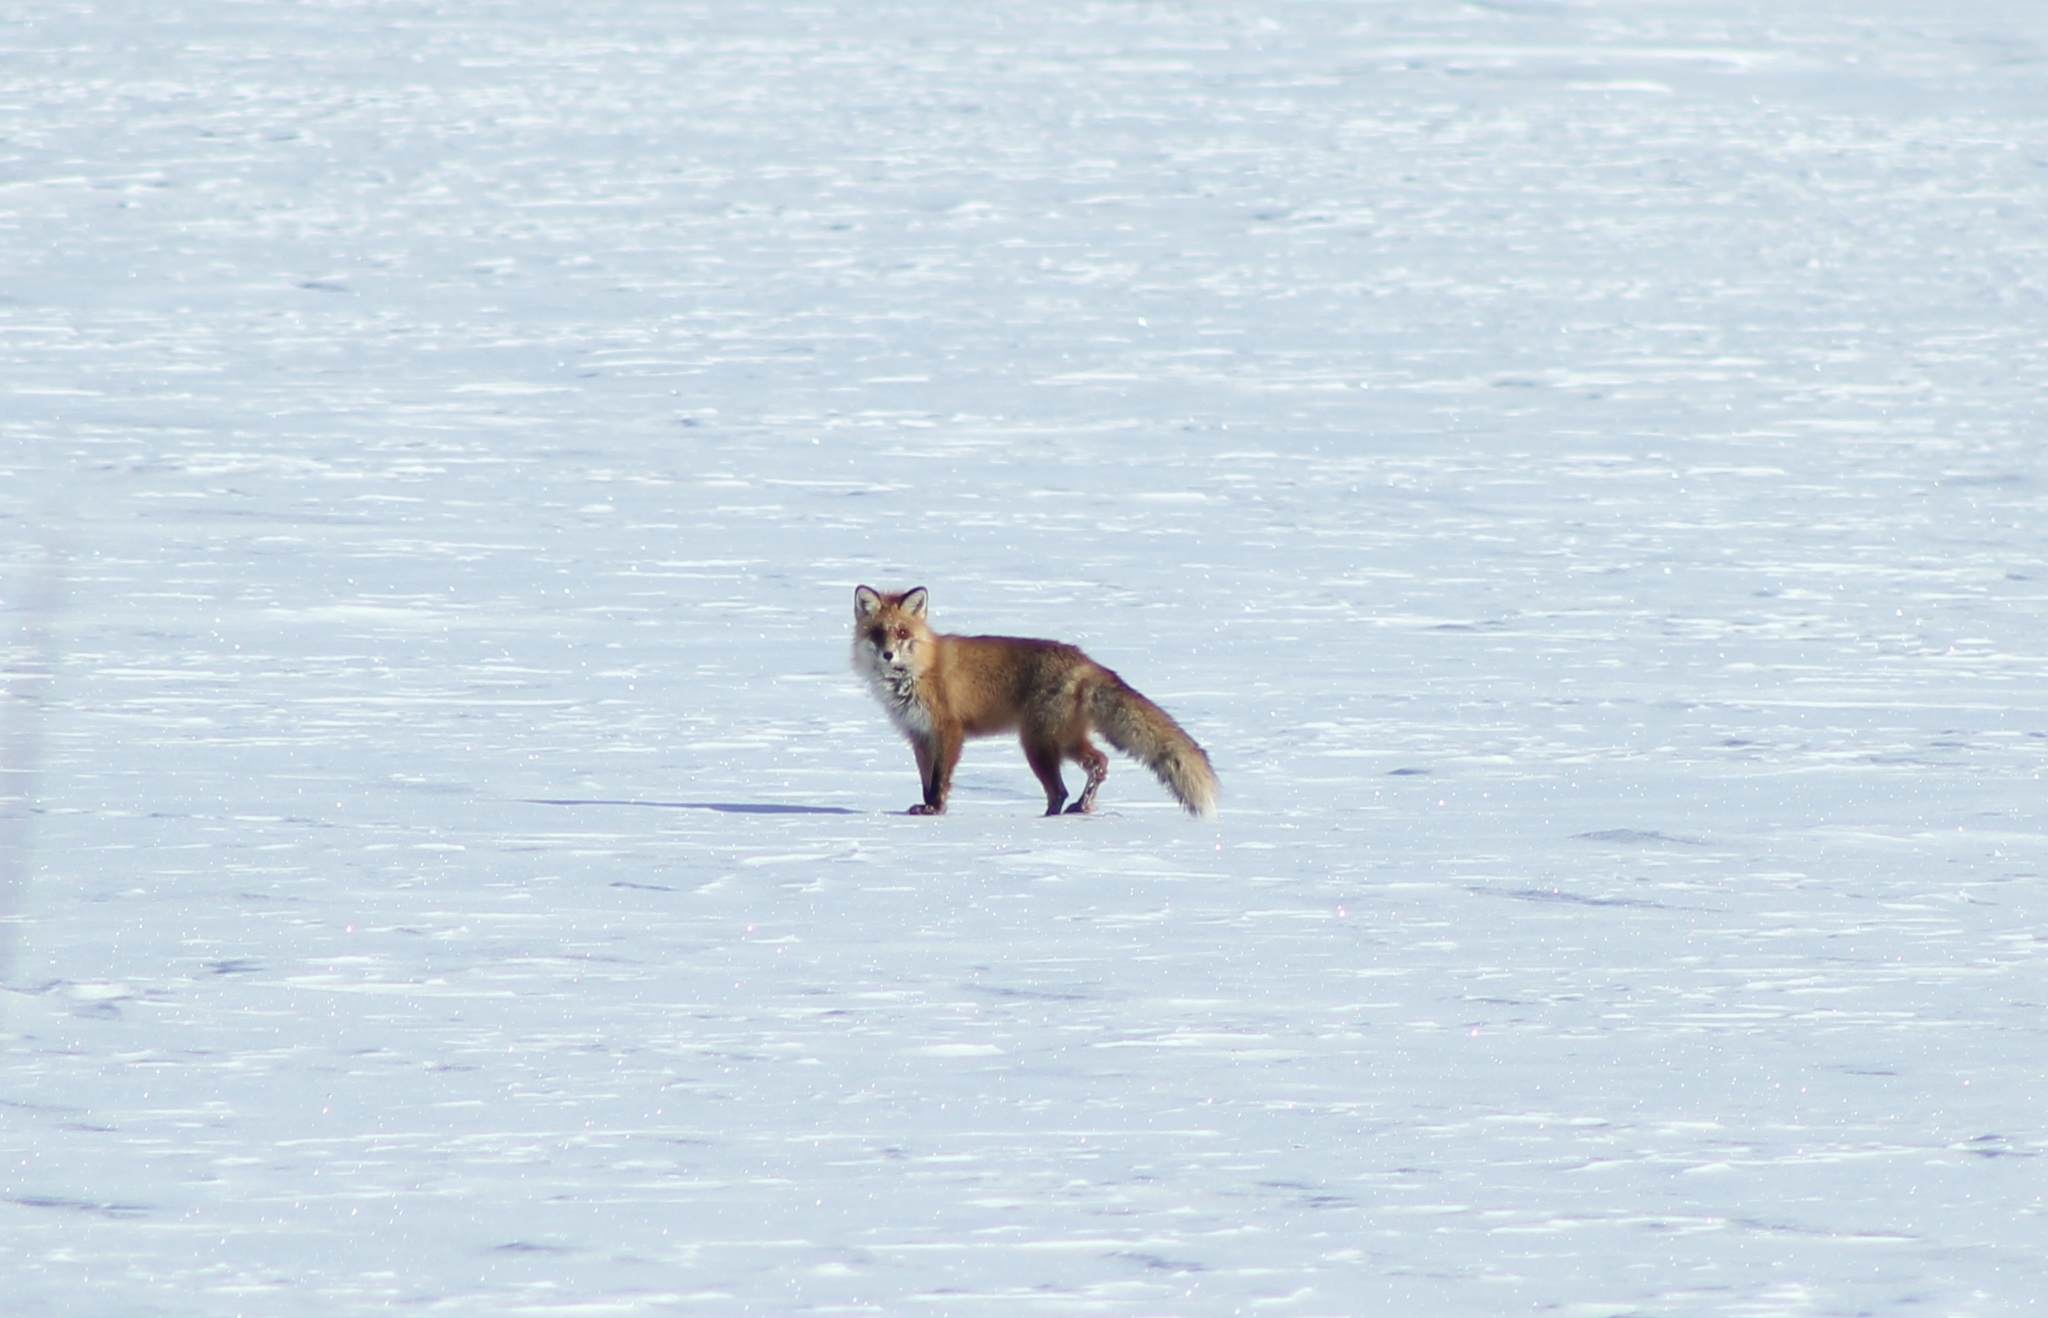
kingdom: Animalia
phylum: Chordata
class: Mammalia
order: Carnivora
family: Canidae
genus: Vulpes
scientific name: Vulpes vulpes
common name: Red fox
